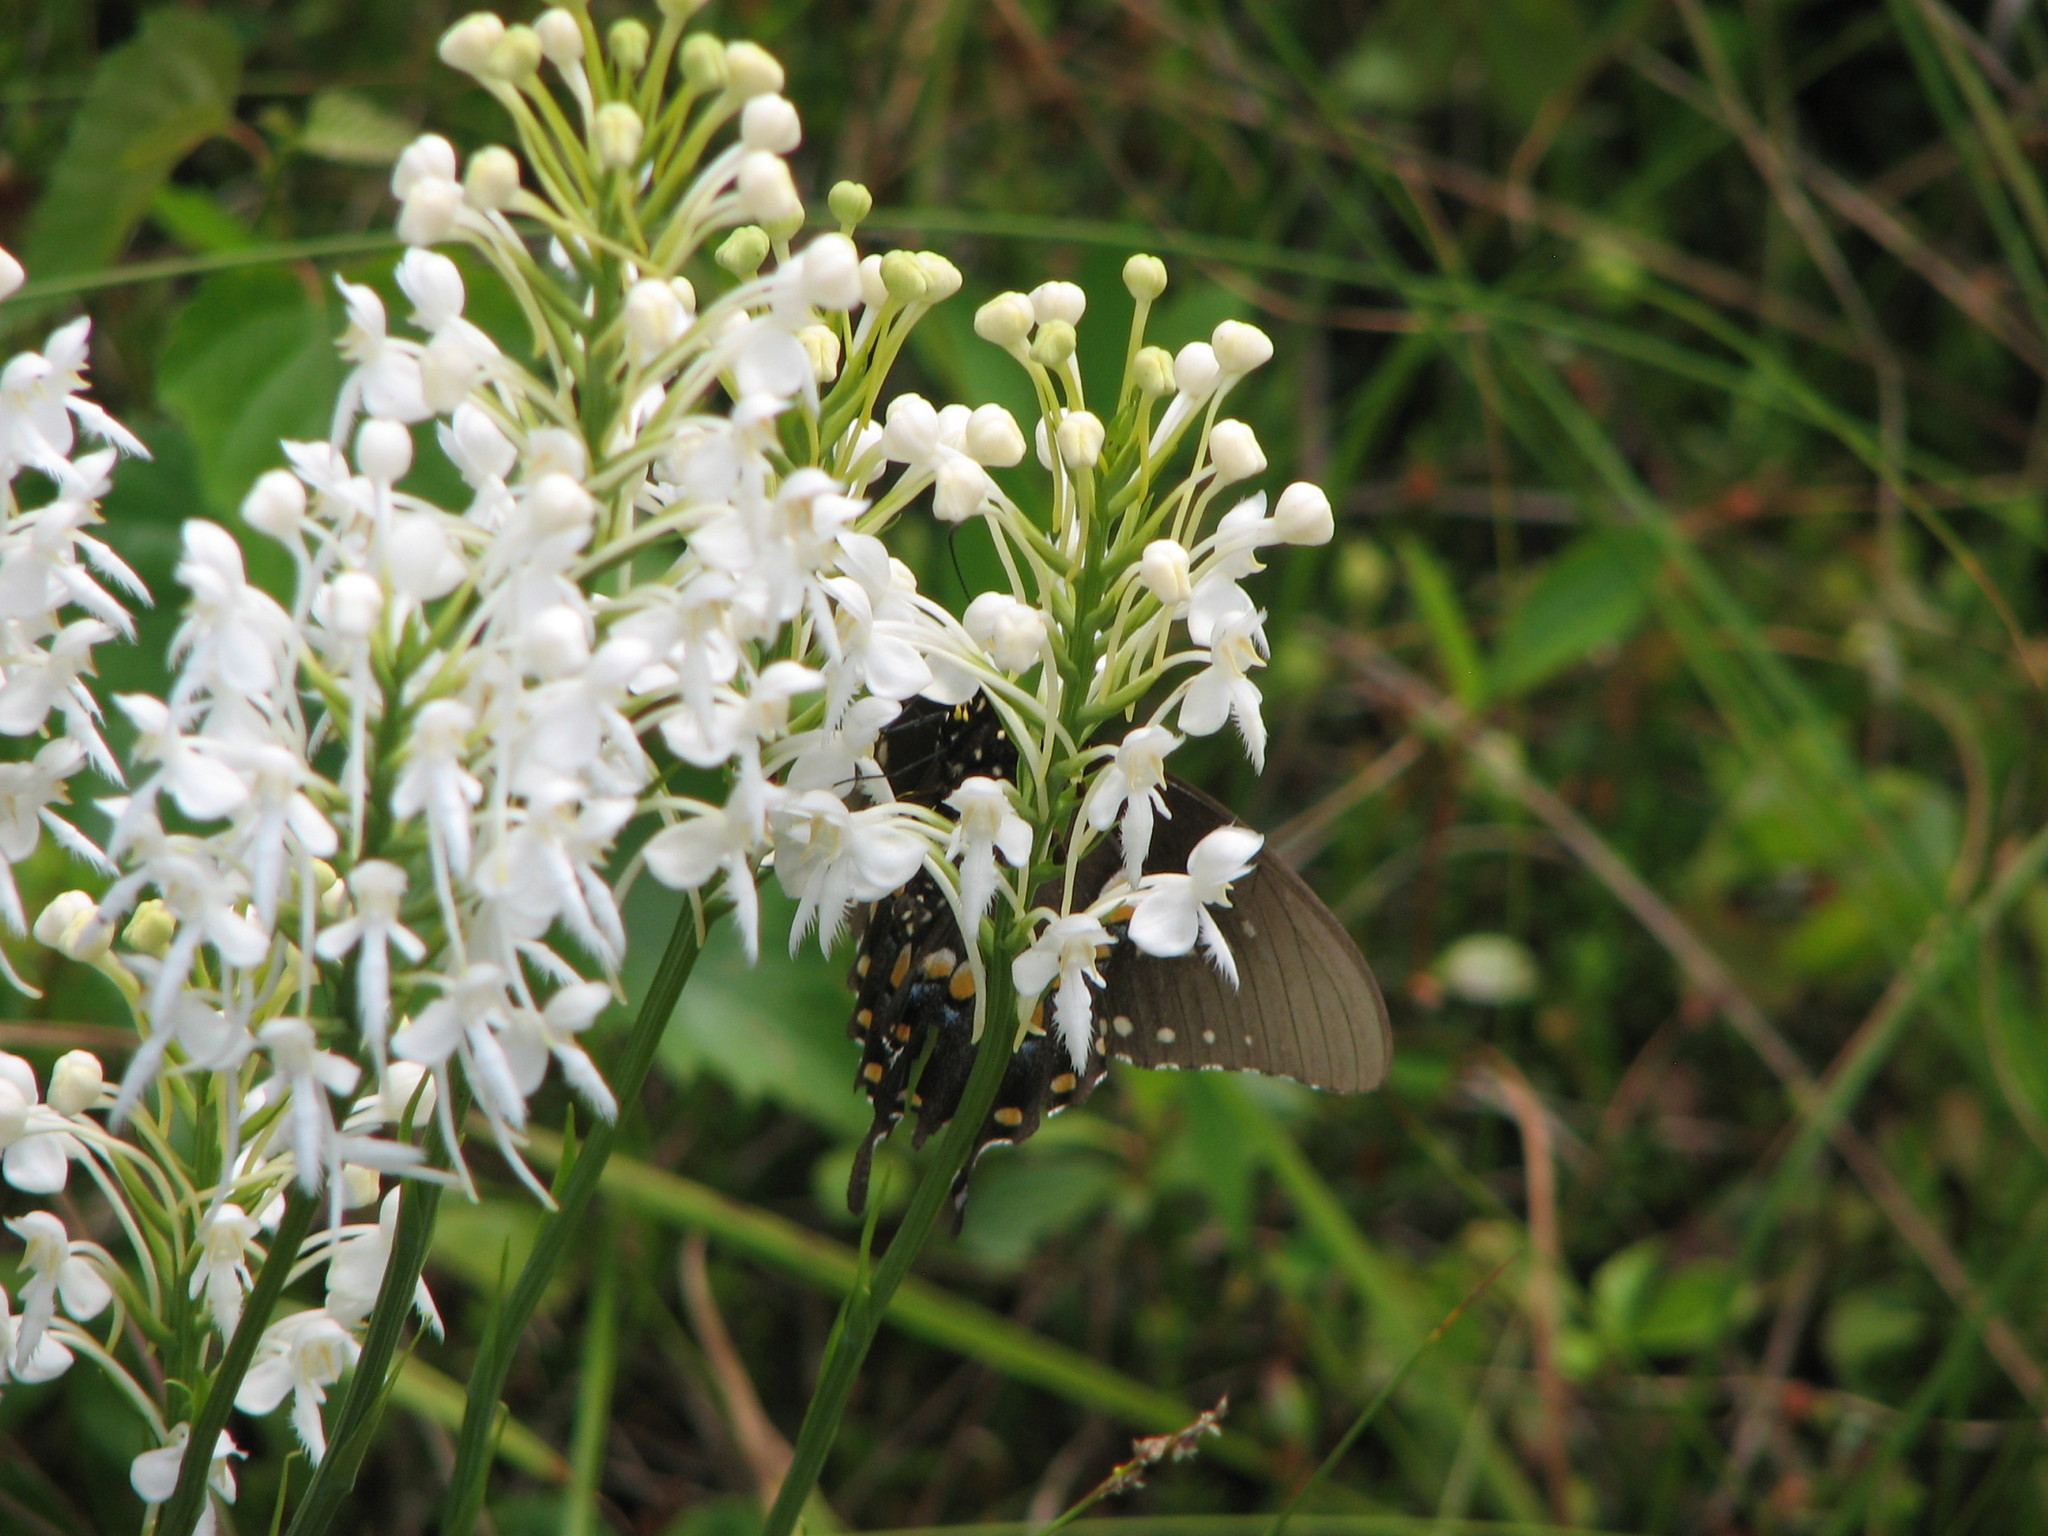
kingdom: Animalia
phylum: Arthropoda
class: Insecta
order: Lepidoptera
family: Papilionidae
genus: Papilio
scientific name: Papilio troilus
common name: Spicebush swallowtail
